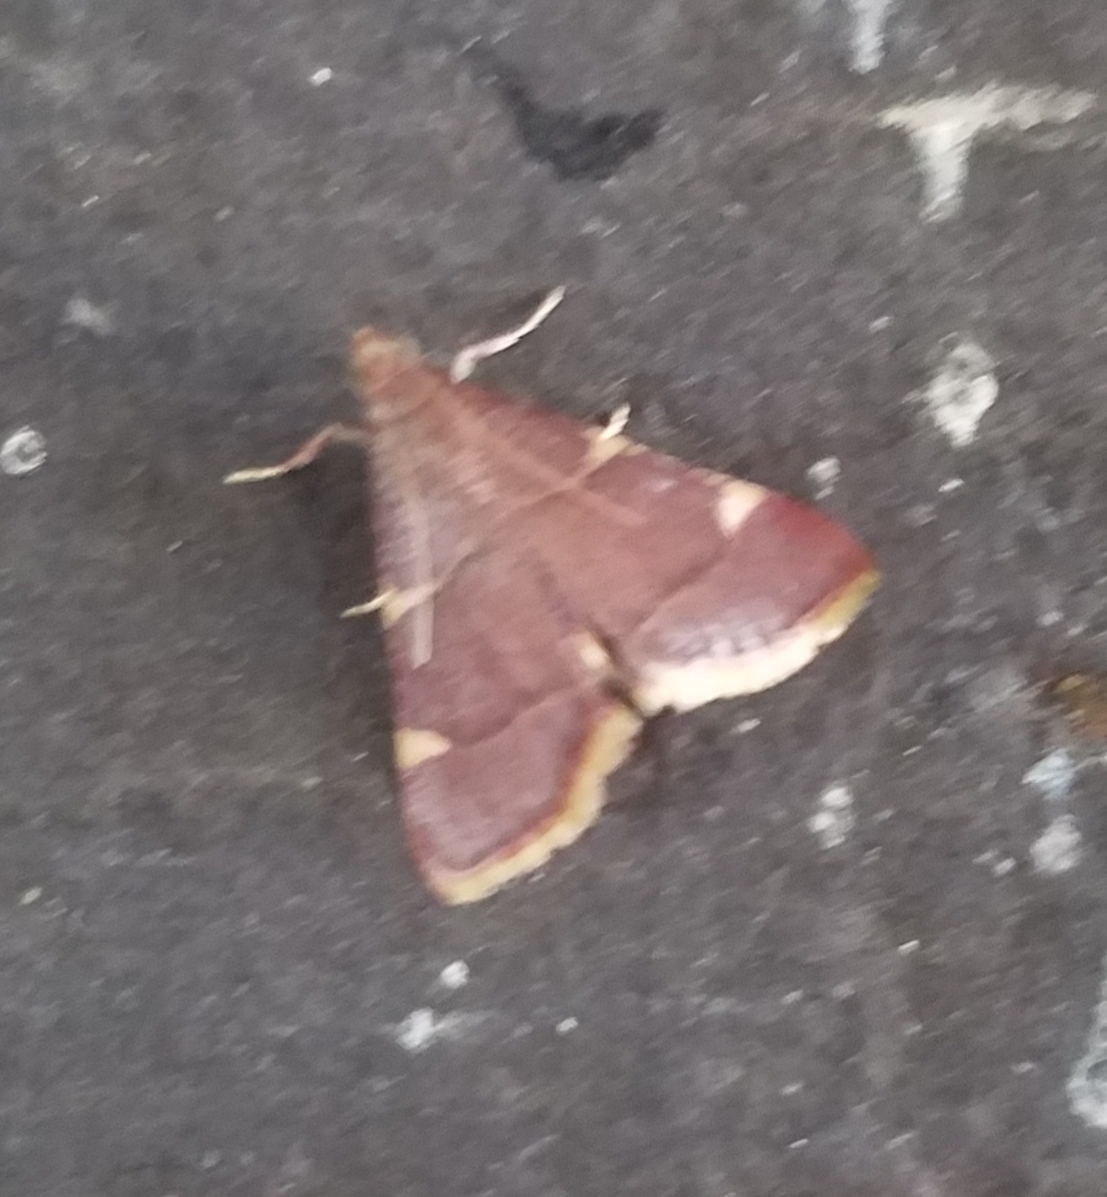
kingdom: Animalia
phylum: Arthropoda
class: Insecta
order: Lepidoptera
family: Pyralidae
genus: Hypsopygia
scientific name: Hypsopygia olinalis
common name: Yellow-fringed dolichomia moth
